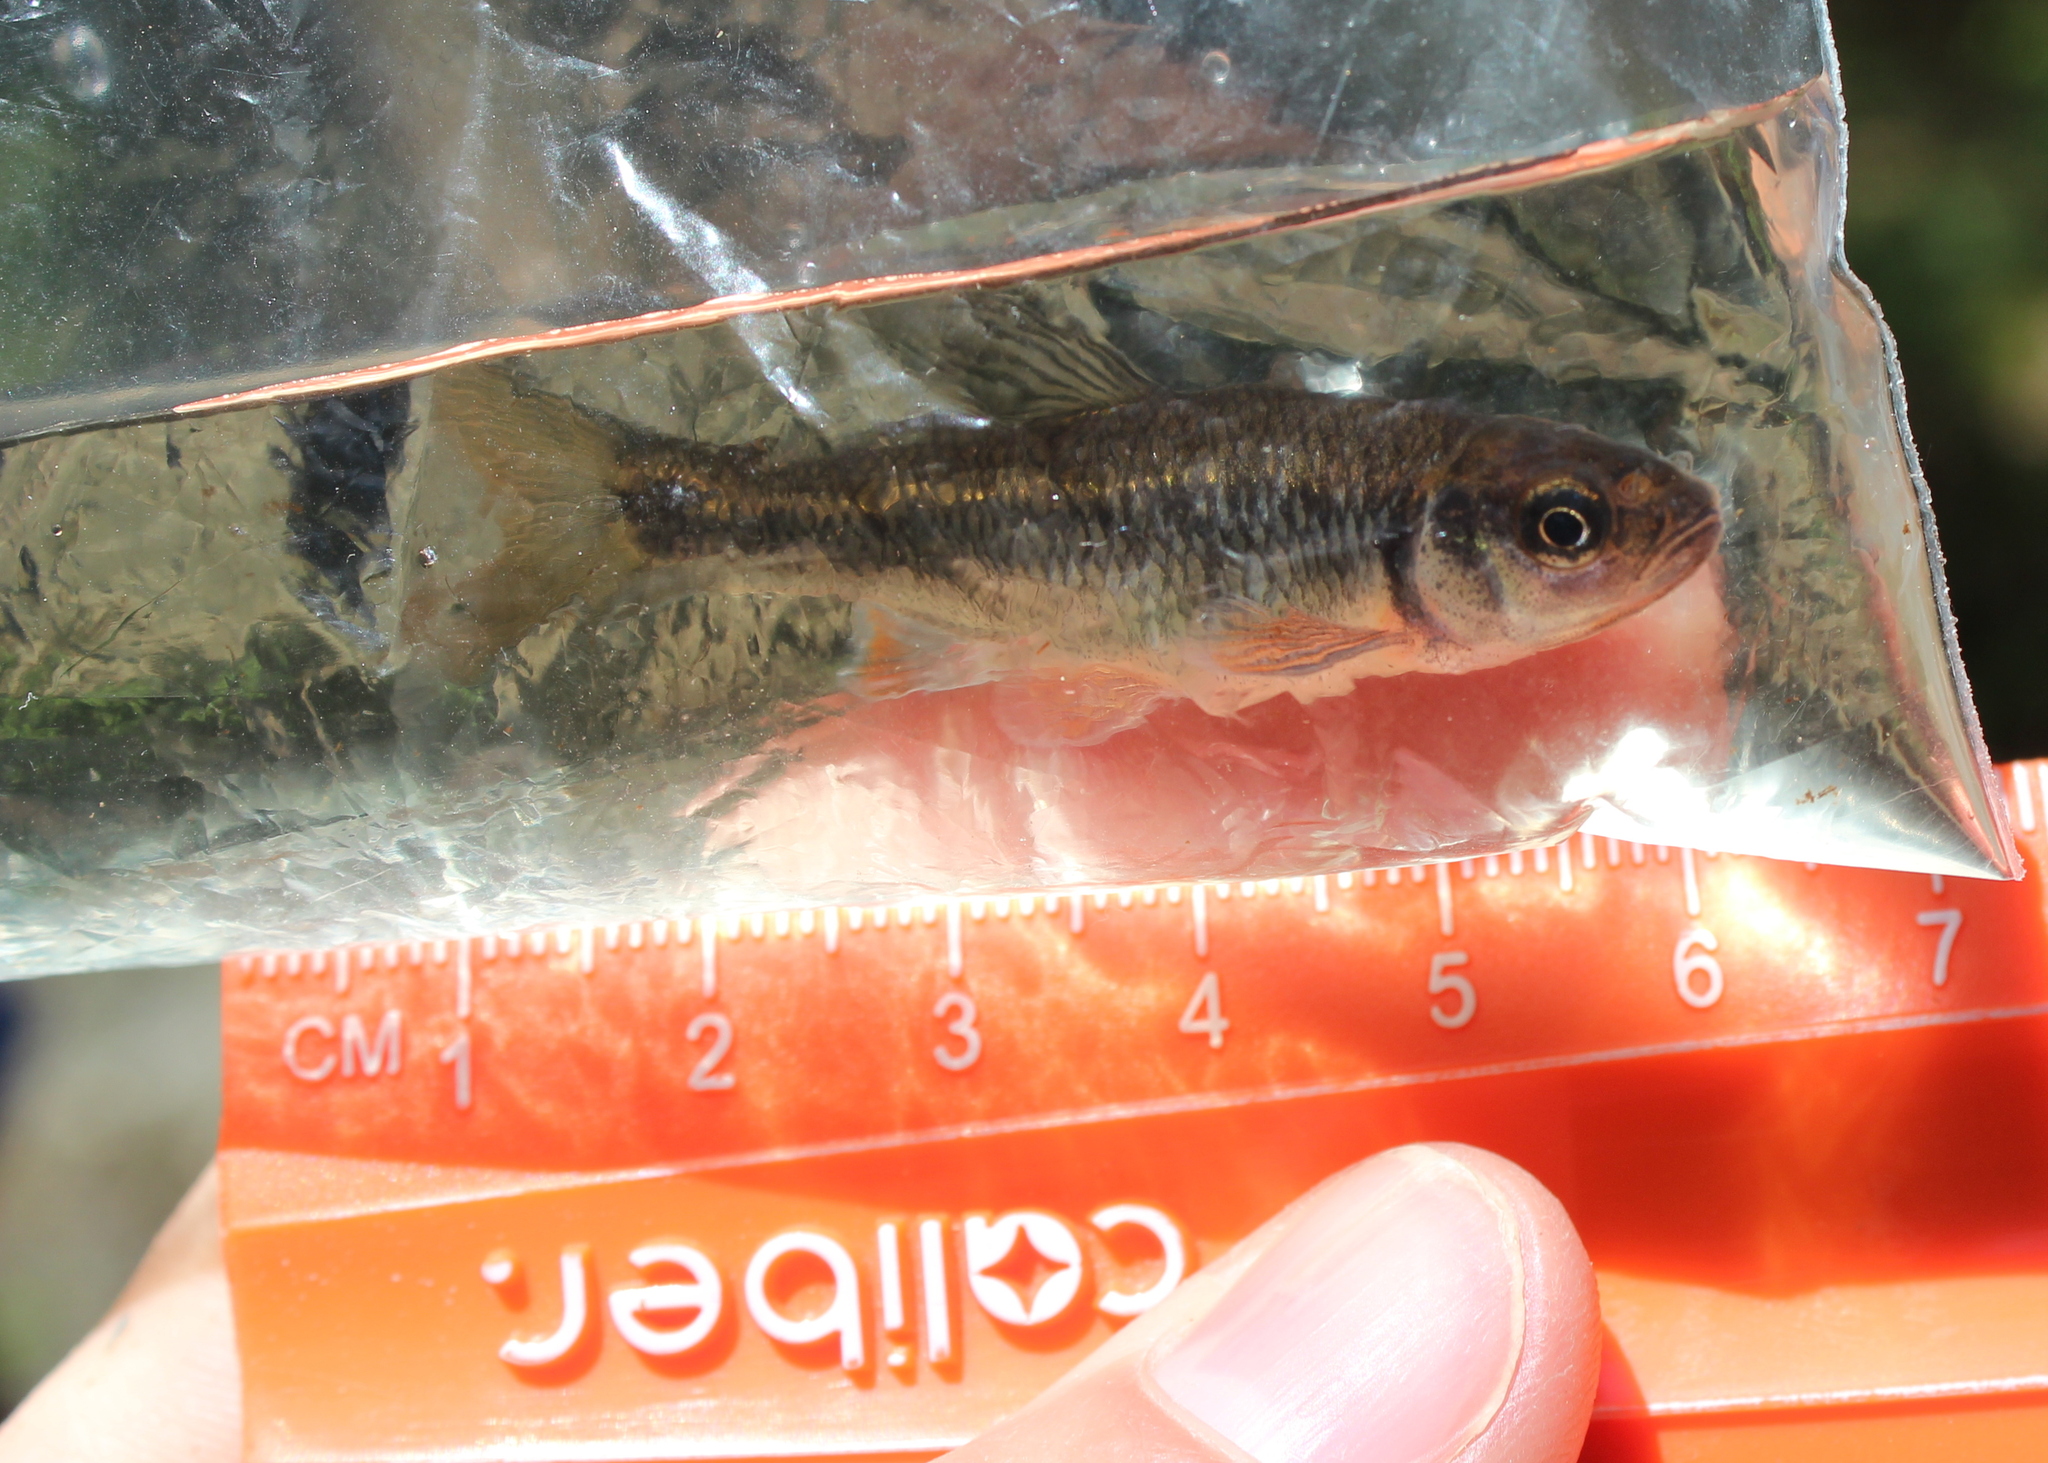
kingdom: Animalia
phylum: Chordata
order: Cypriniformes
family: Cyprinidae
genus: Luxilus
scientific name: Luxilus cornutus
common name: Common shiner
